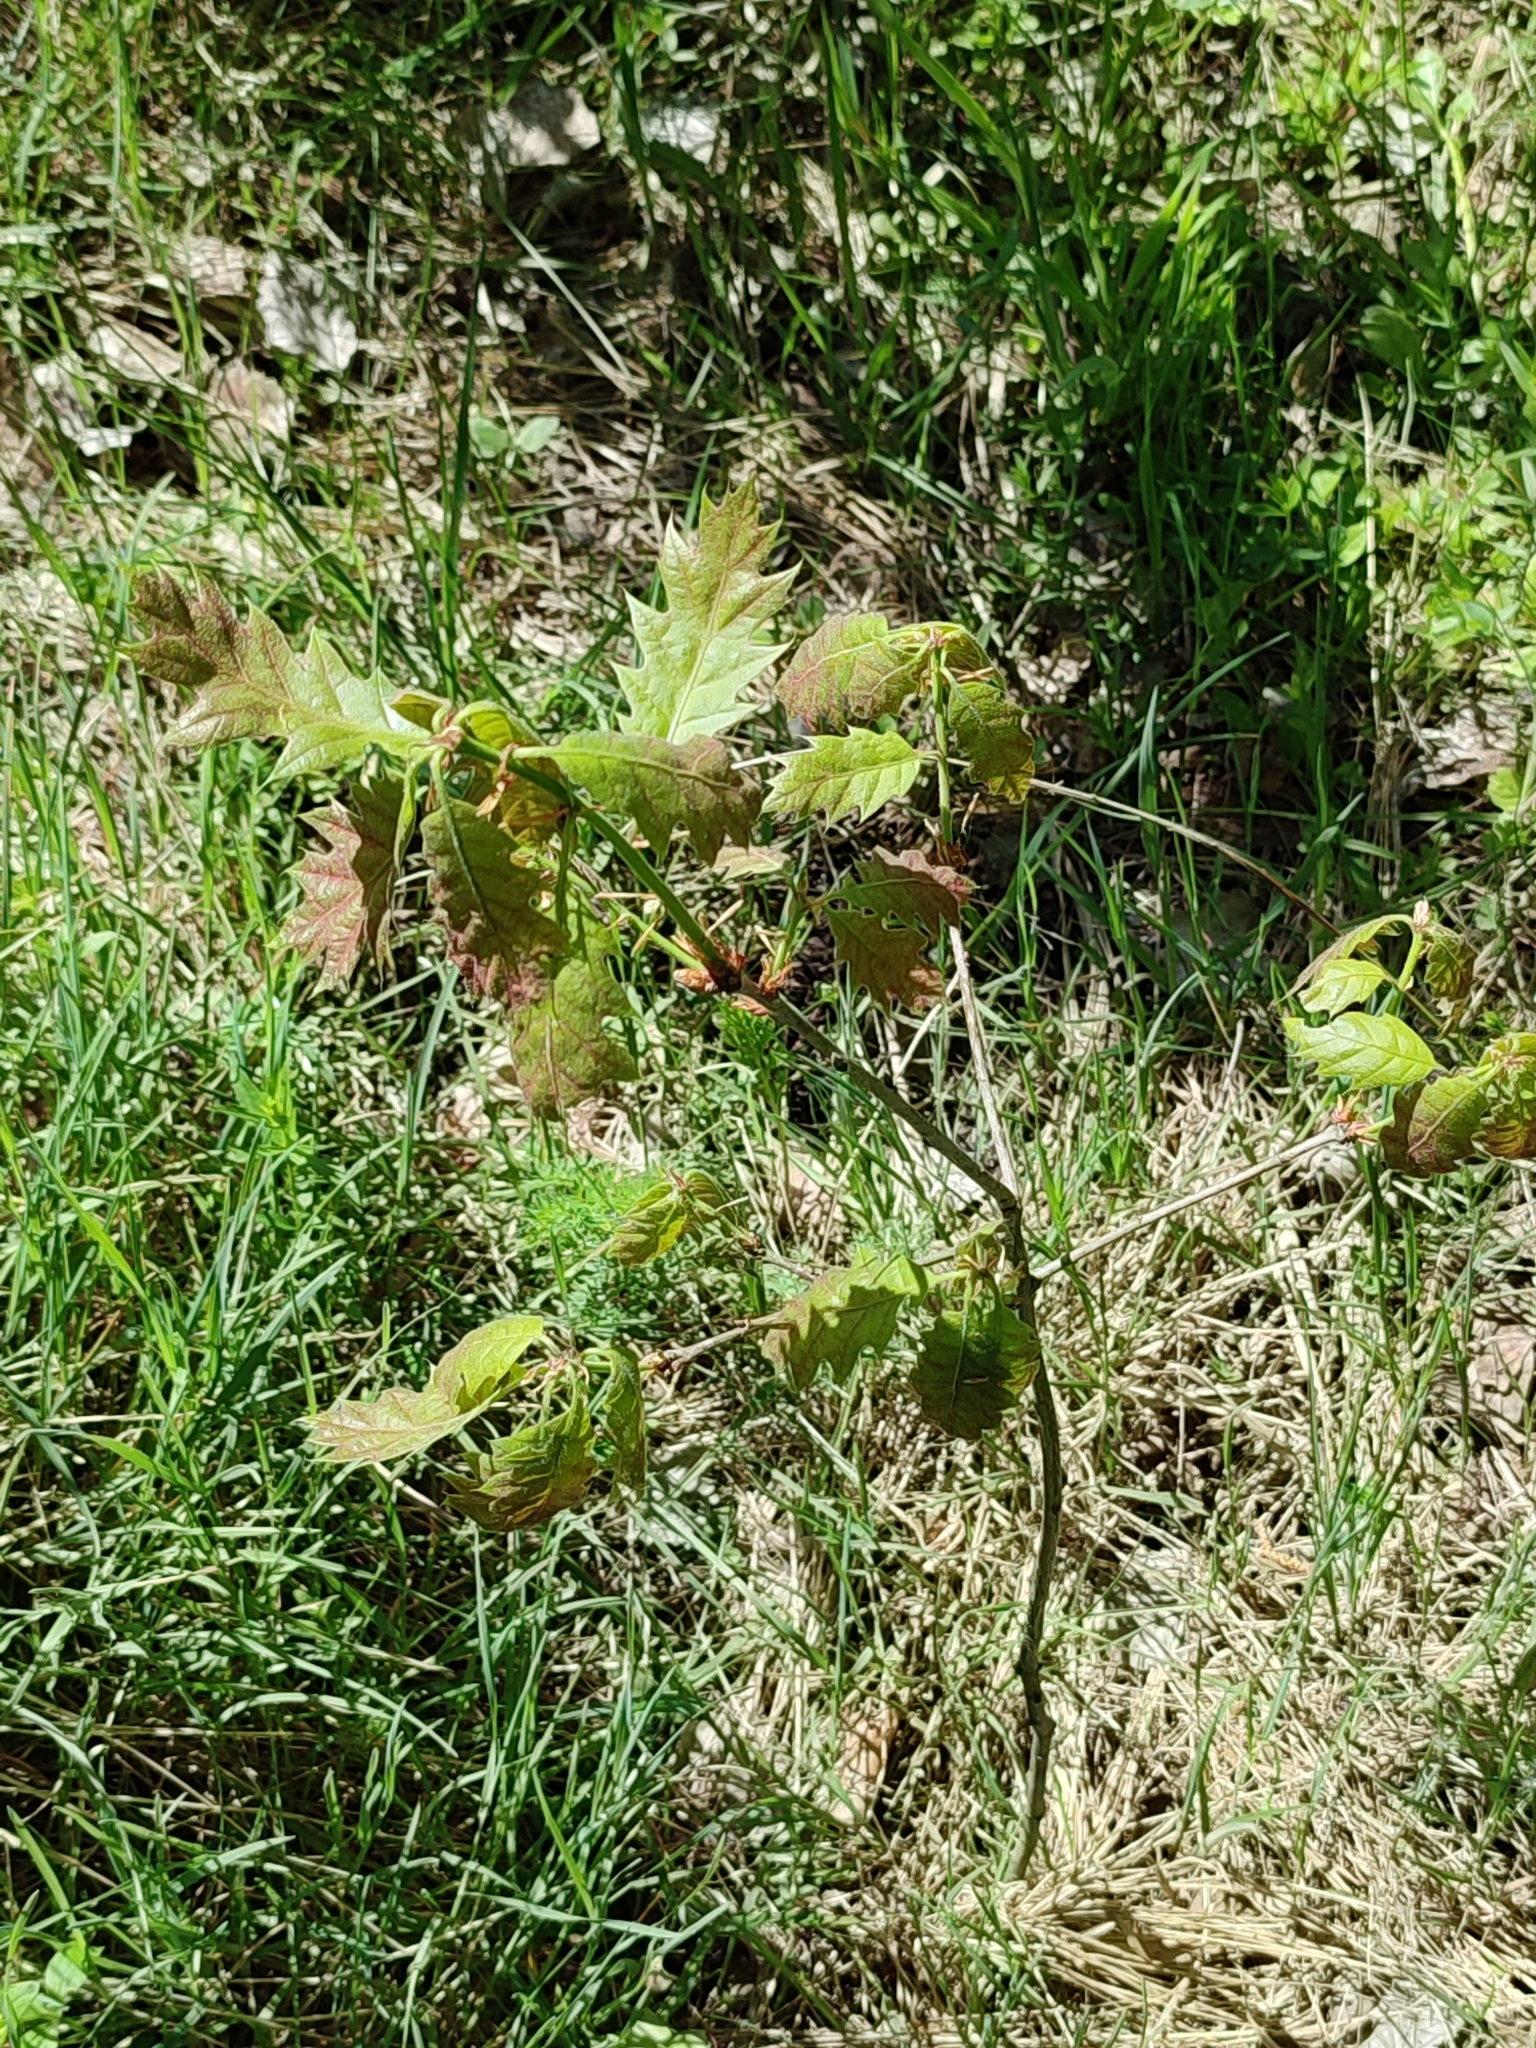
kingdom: Plantae
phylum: Tracheophyta
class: Magnoliopsida
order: Fagales
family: Fagaceae
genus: Quercus
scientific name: Quercus rubra
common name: Red oak
